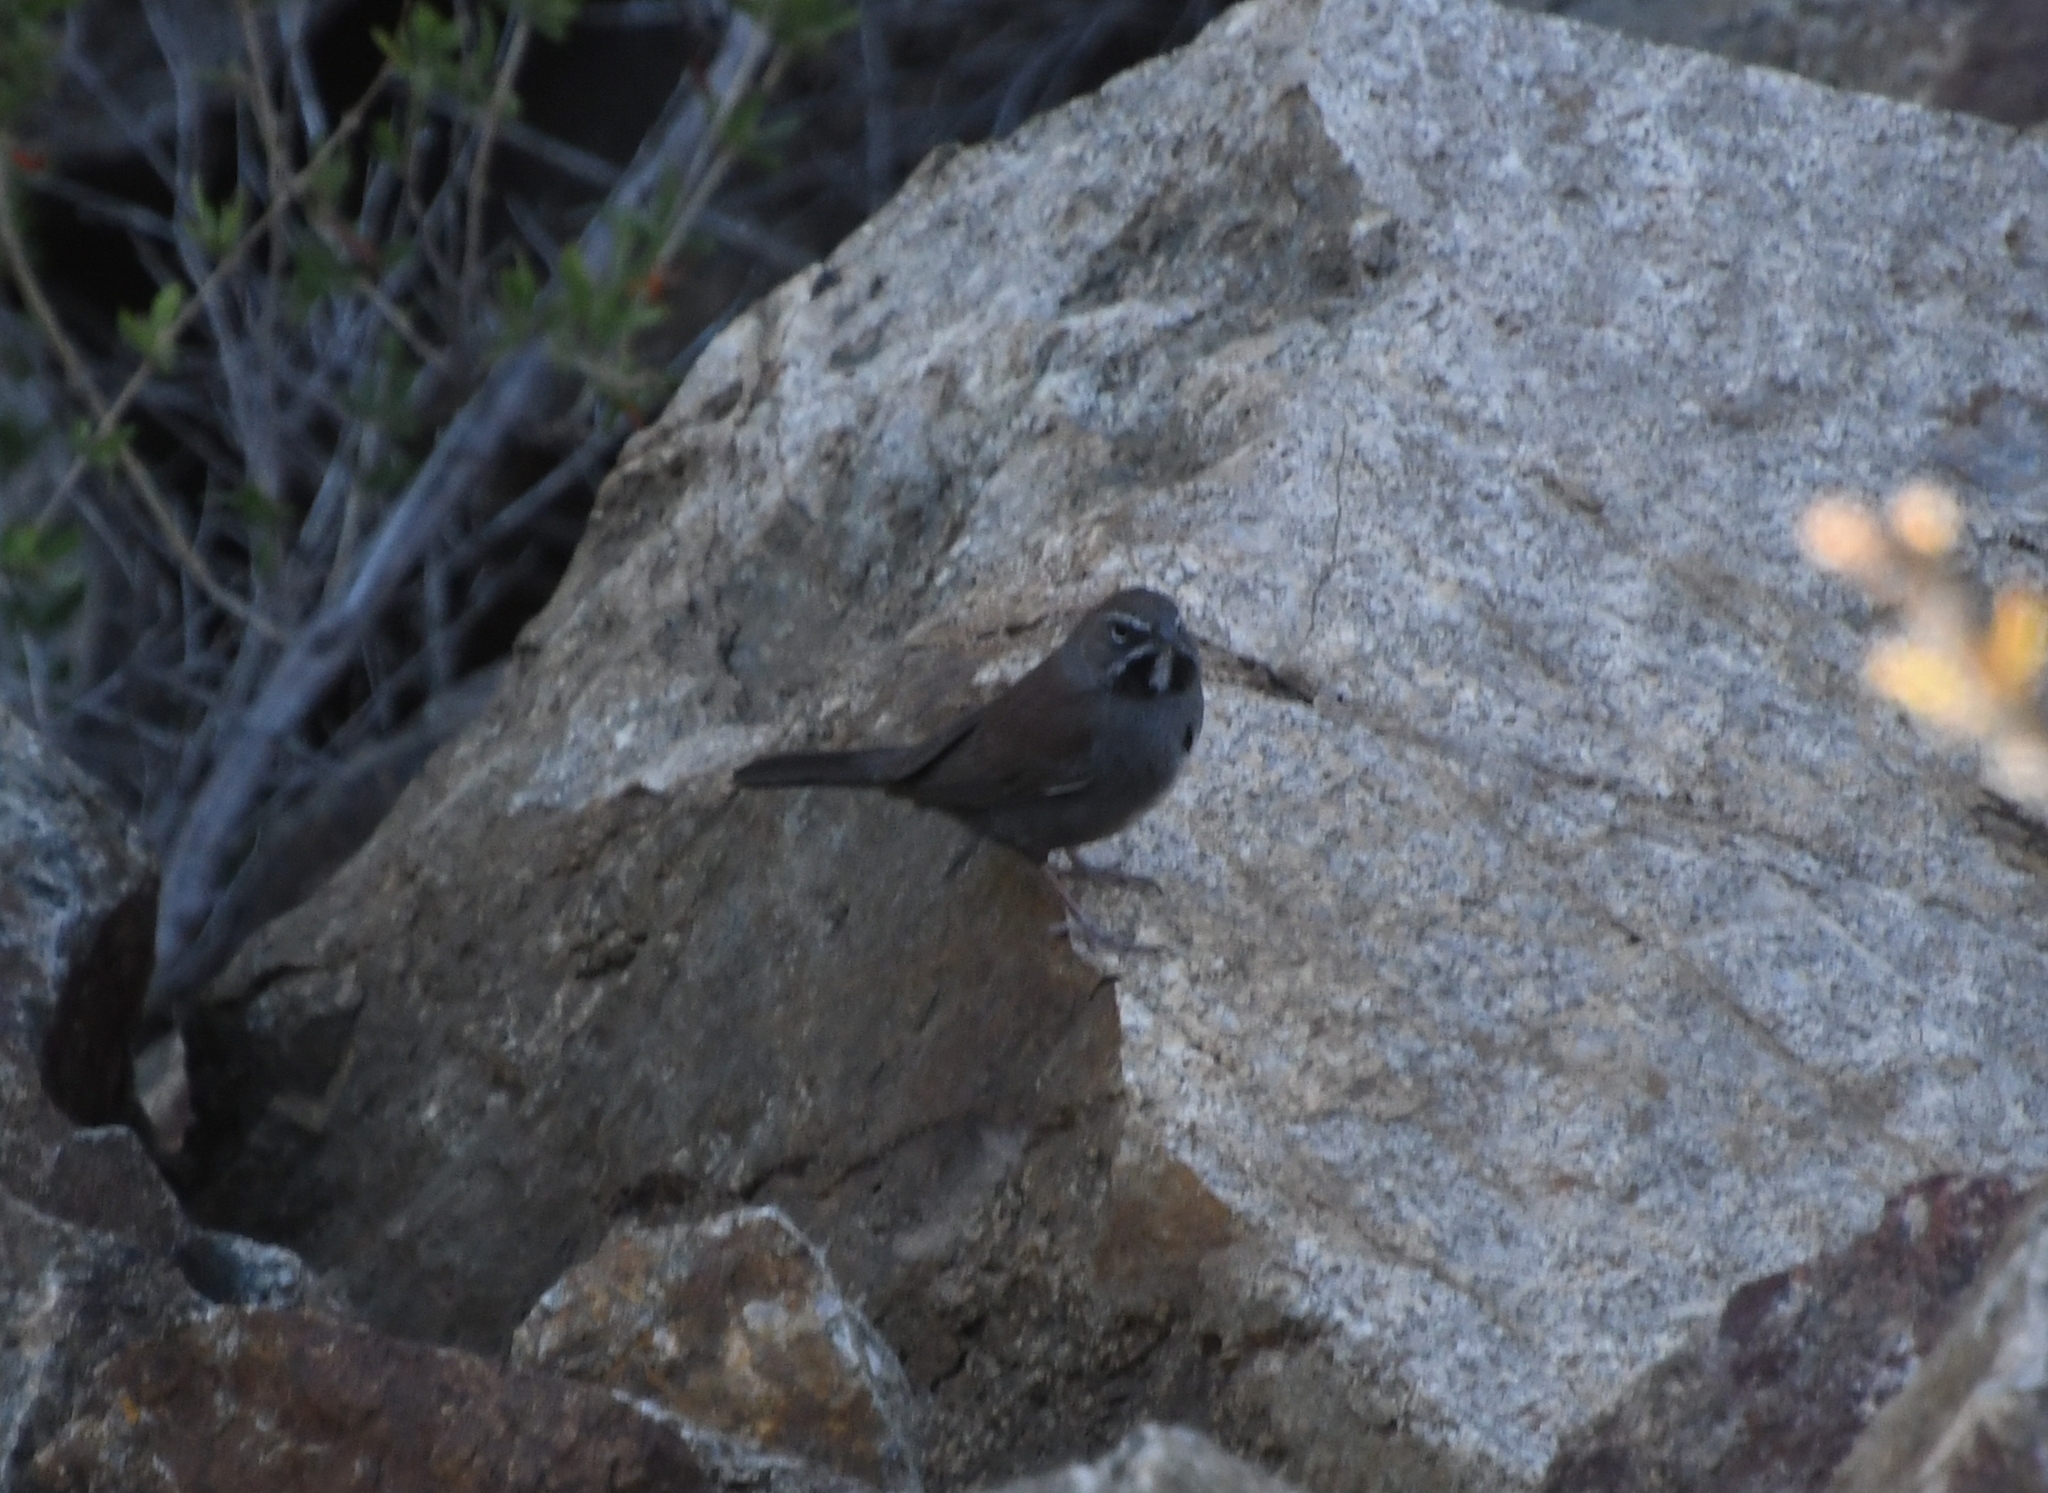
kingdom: Animalia
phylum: Chordata
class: Aves
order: Passeriformes
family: Passerellidae
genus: Amphispizopsis
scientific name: Amphispizopsis quinquestriata
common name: Five-striped sparrow
